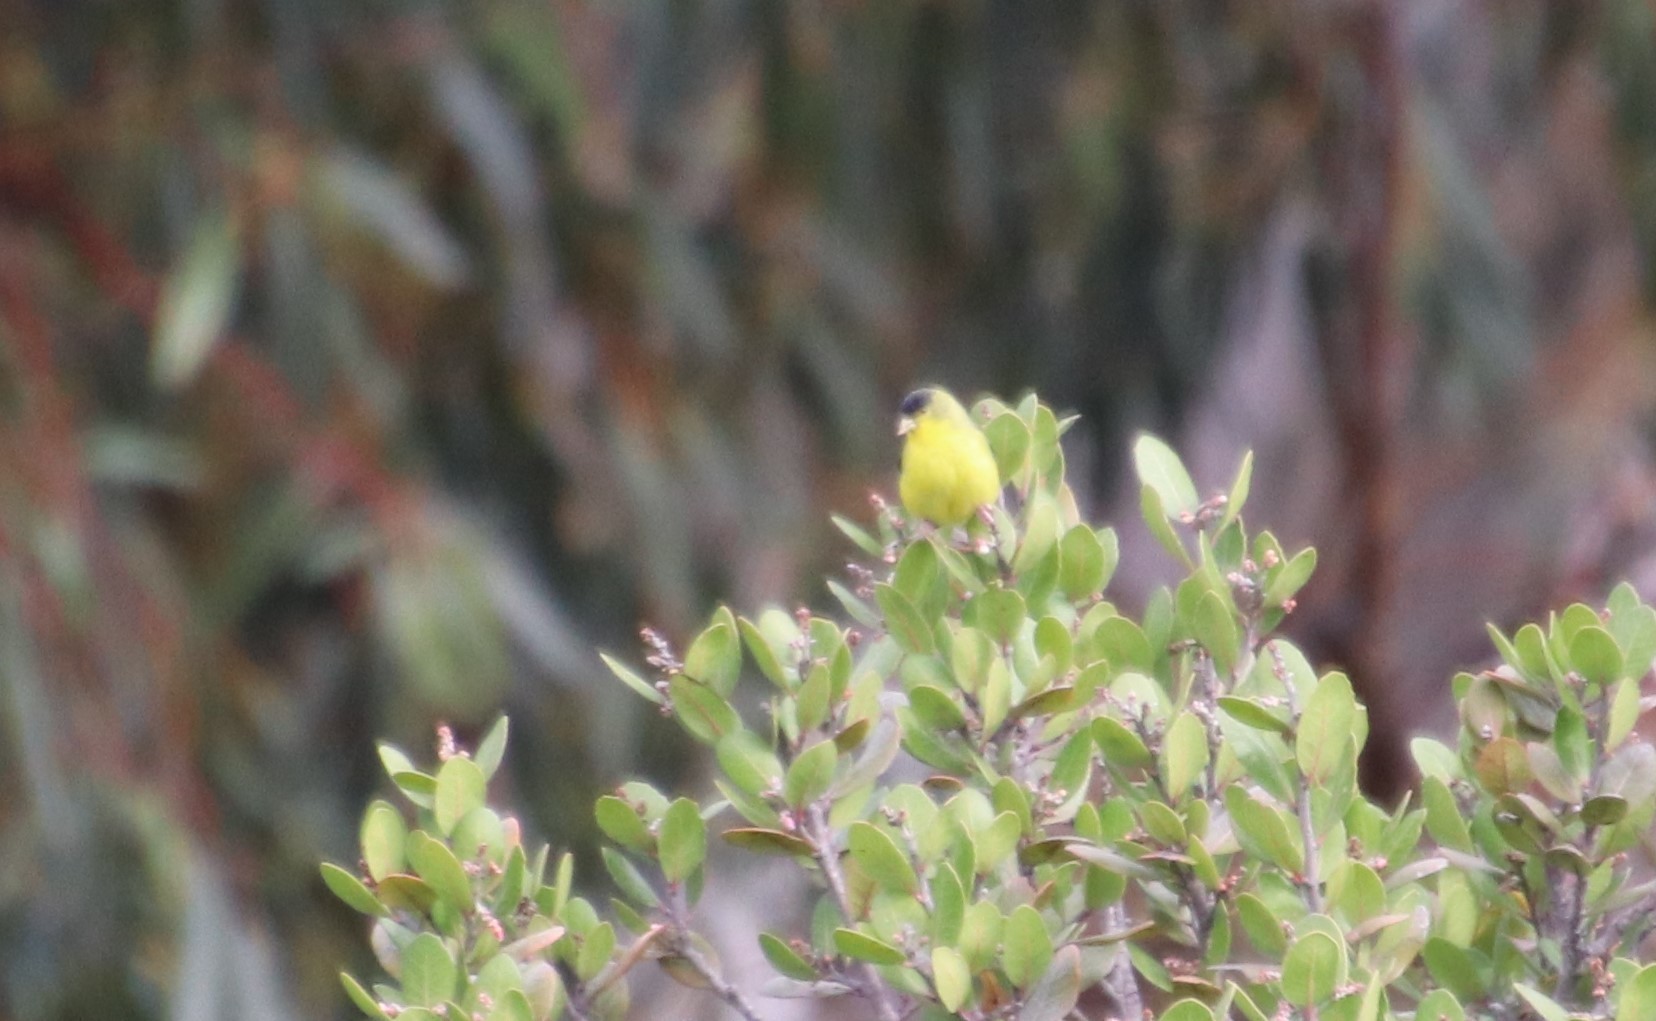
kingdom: Animalia
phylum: Chordata
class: Aves
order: Passeriformes
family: Fringillidae
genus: Spinus
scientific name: Spinus psaltria
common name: Lesser goldfinch
